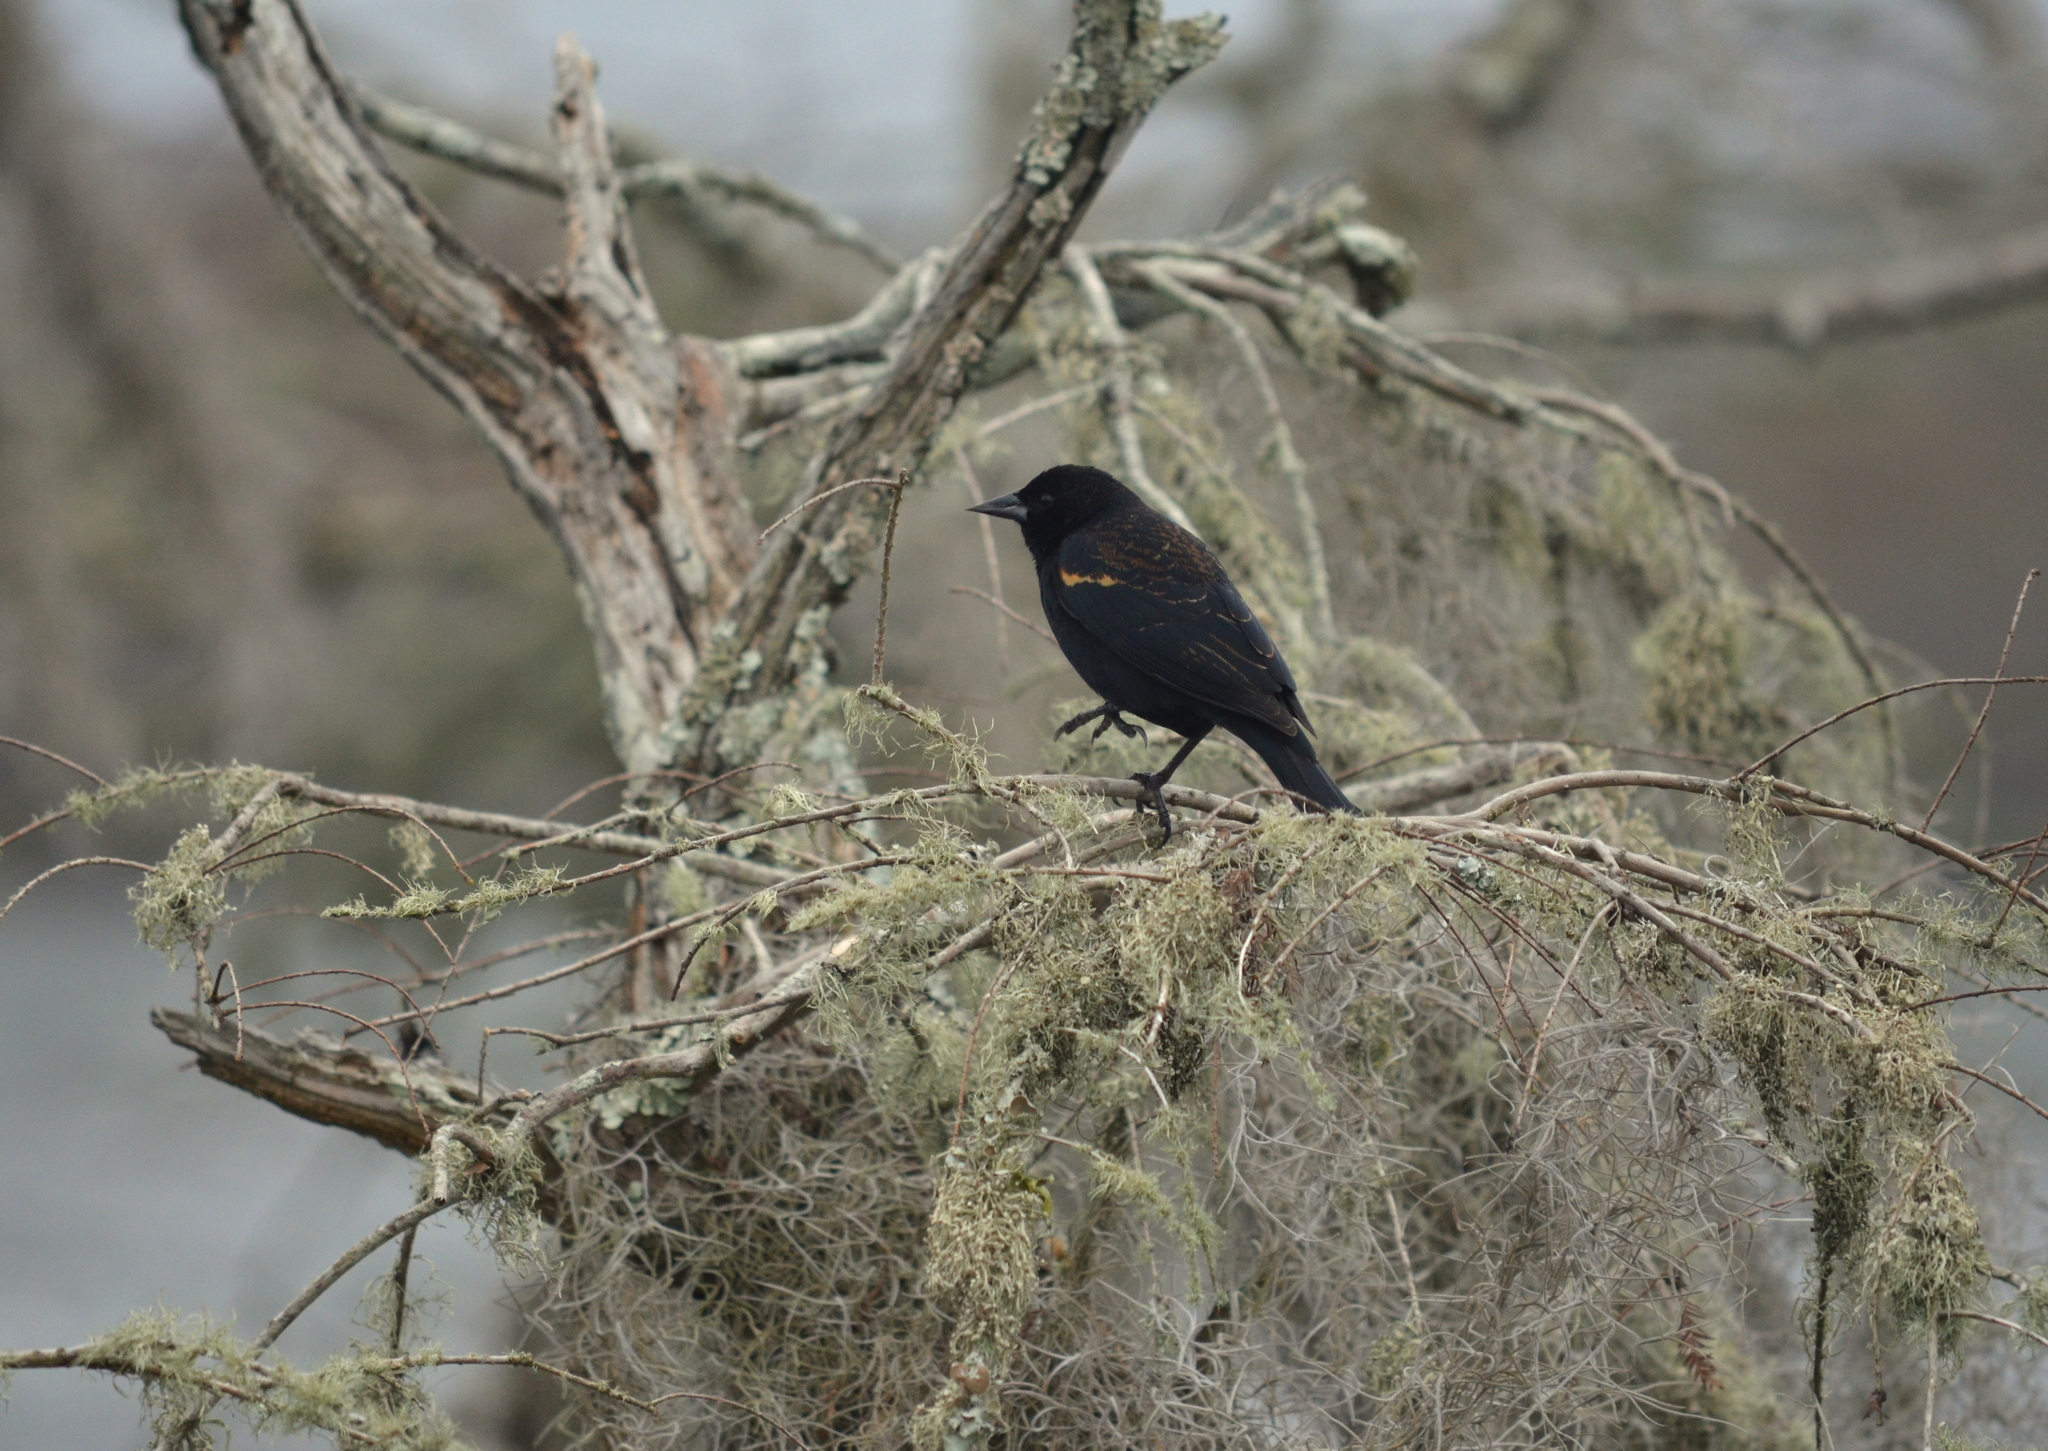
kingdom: Animalia
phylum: Chordata
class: Aves
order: Passeriformes
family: Icteridae
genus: Agelaius
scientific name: Agelaius phoeniceus
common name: Red-winged blackbird
